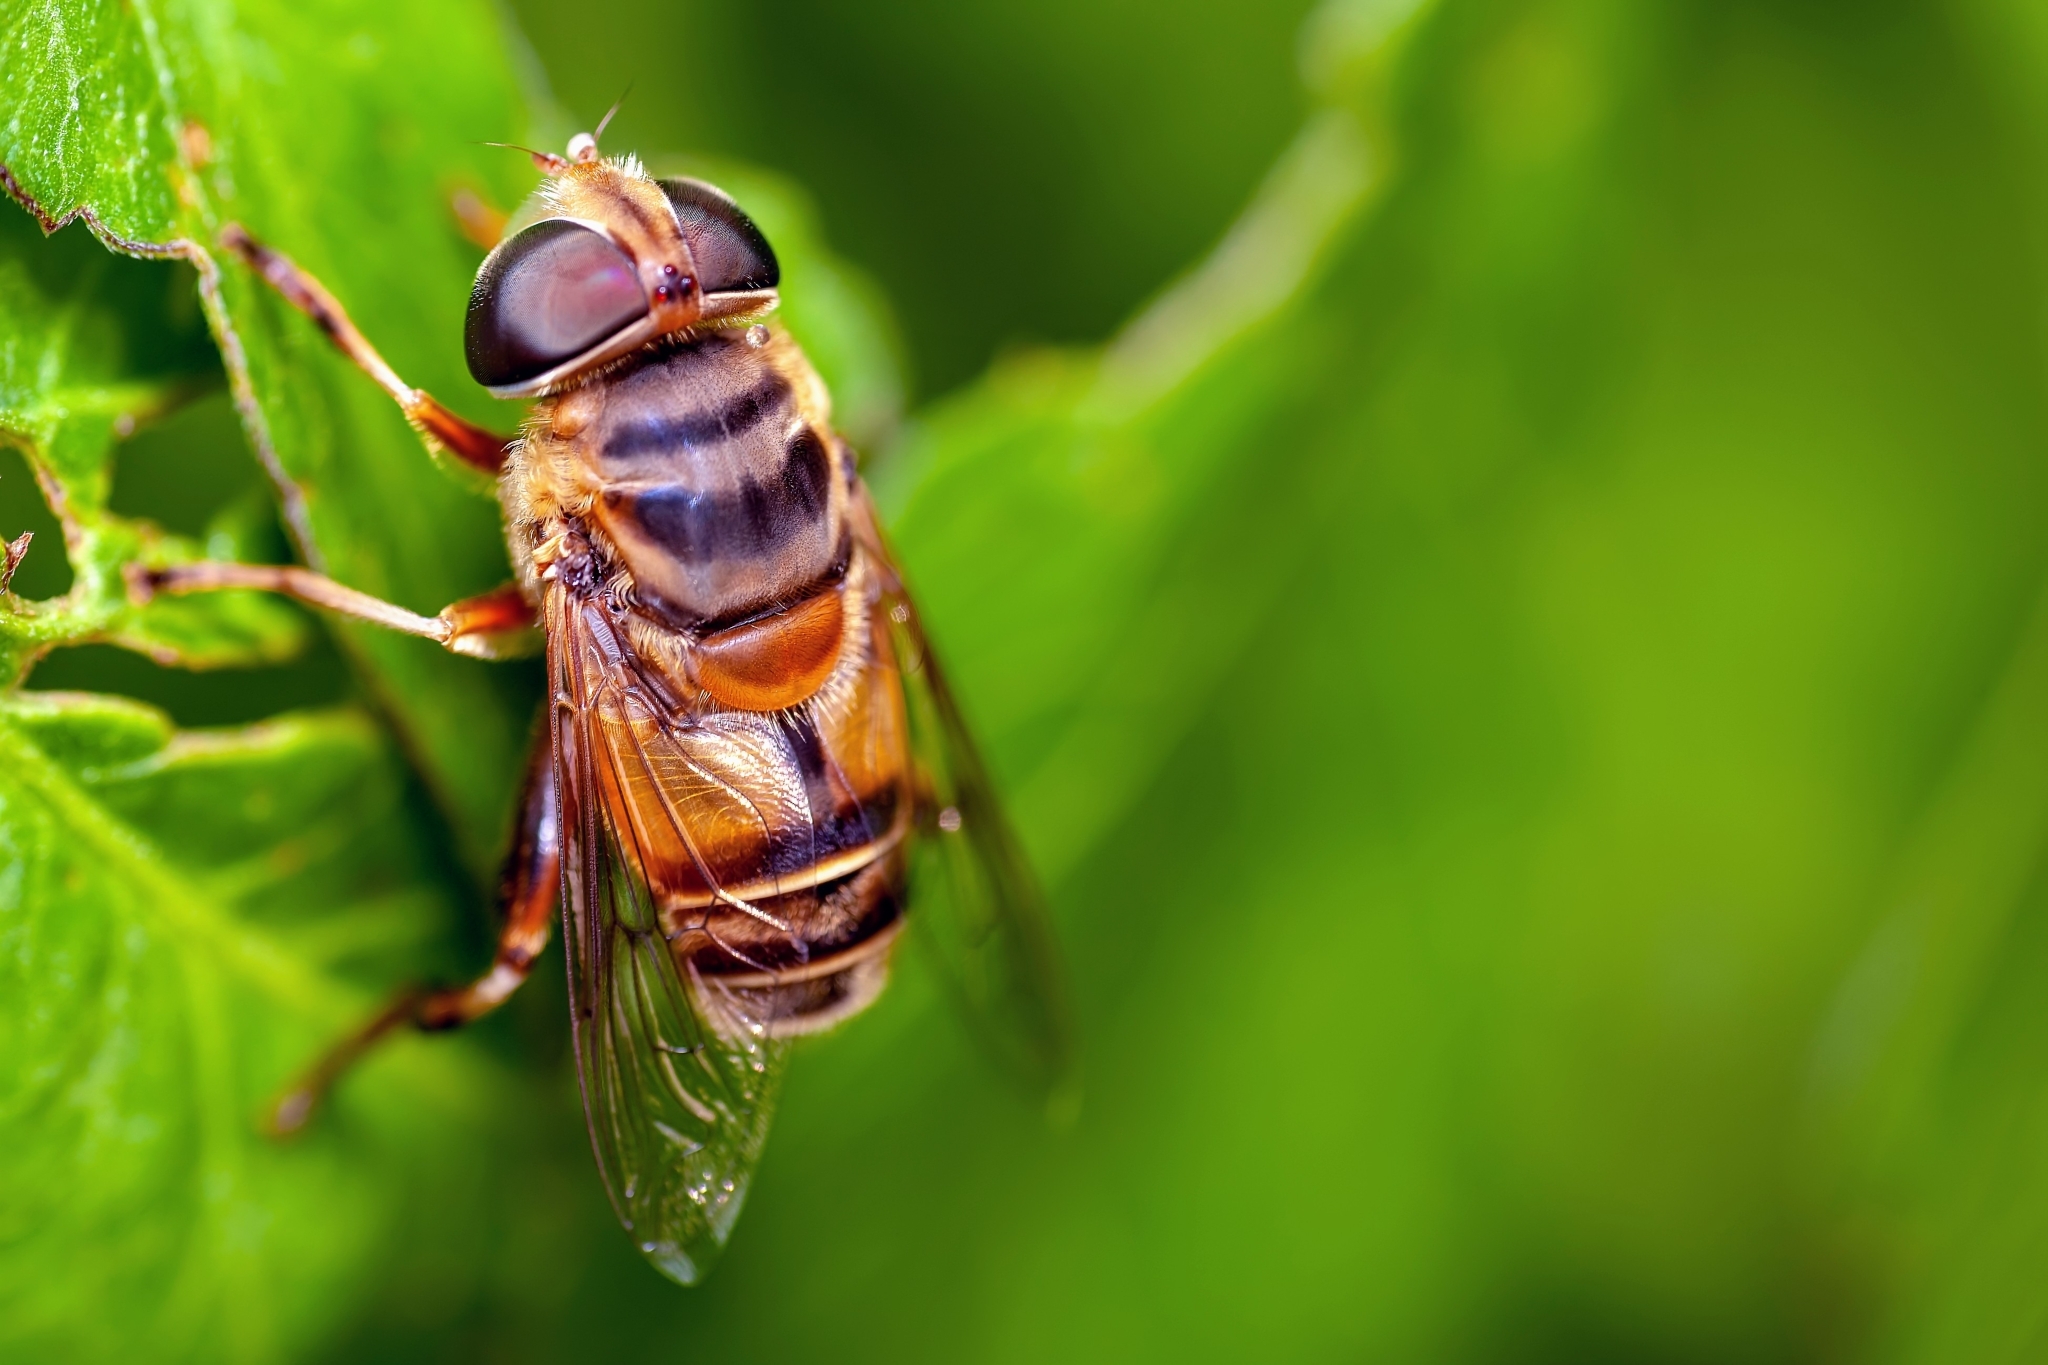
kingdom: Animalia
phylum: Arthropoda
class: Insecta
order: Diptera
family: Syrphidae
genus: Palpada
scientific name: Palpada vinetorum
